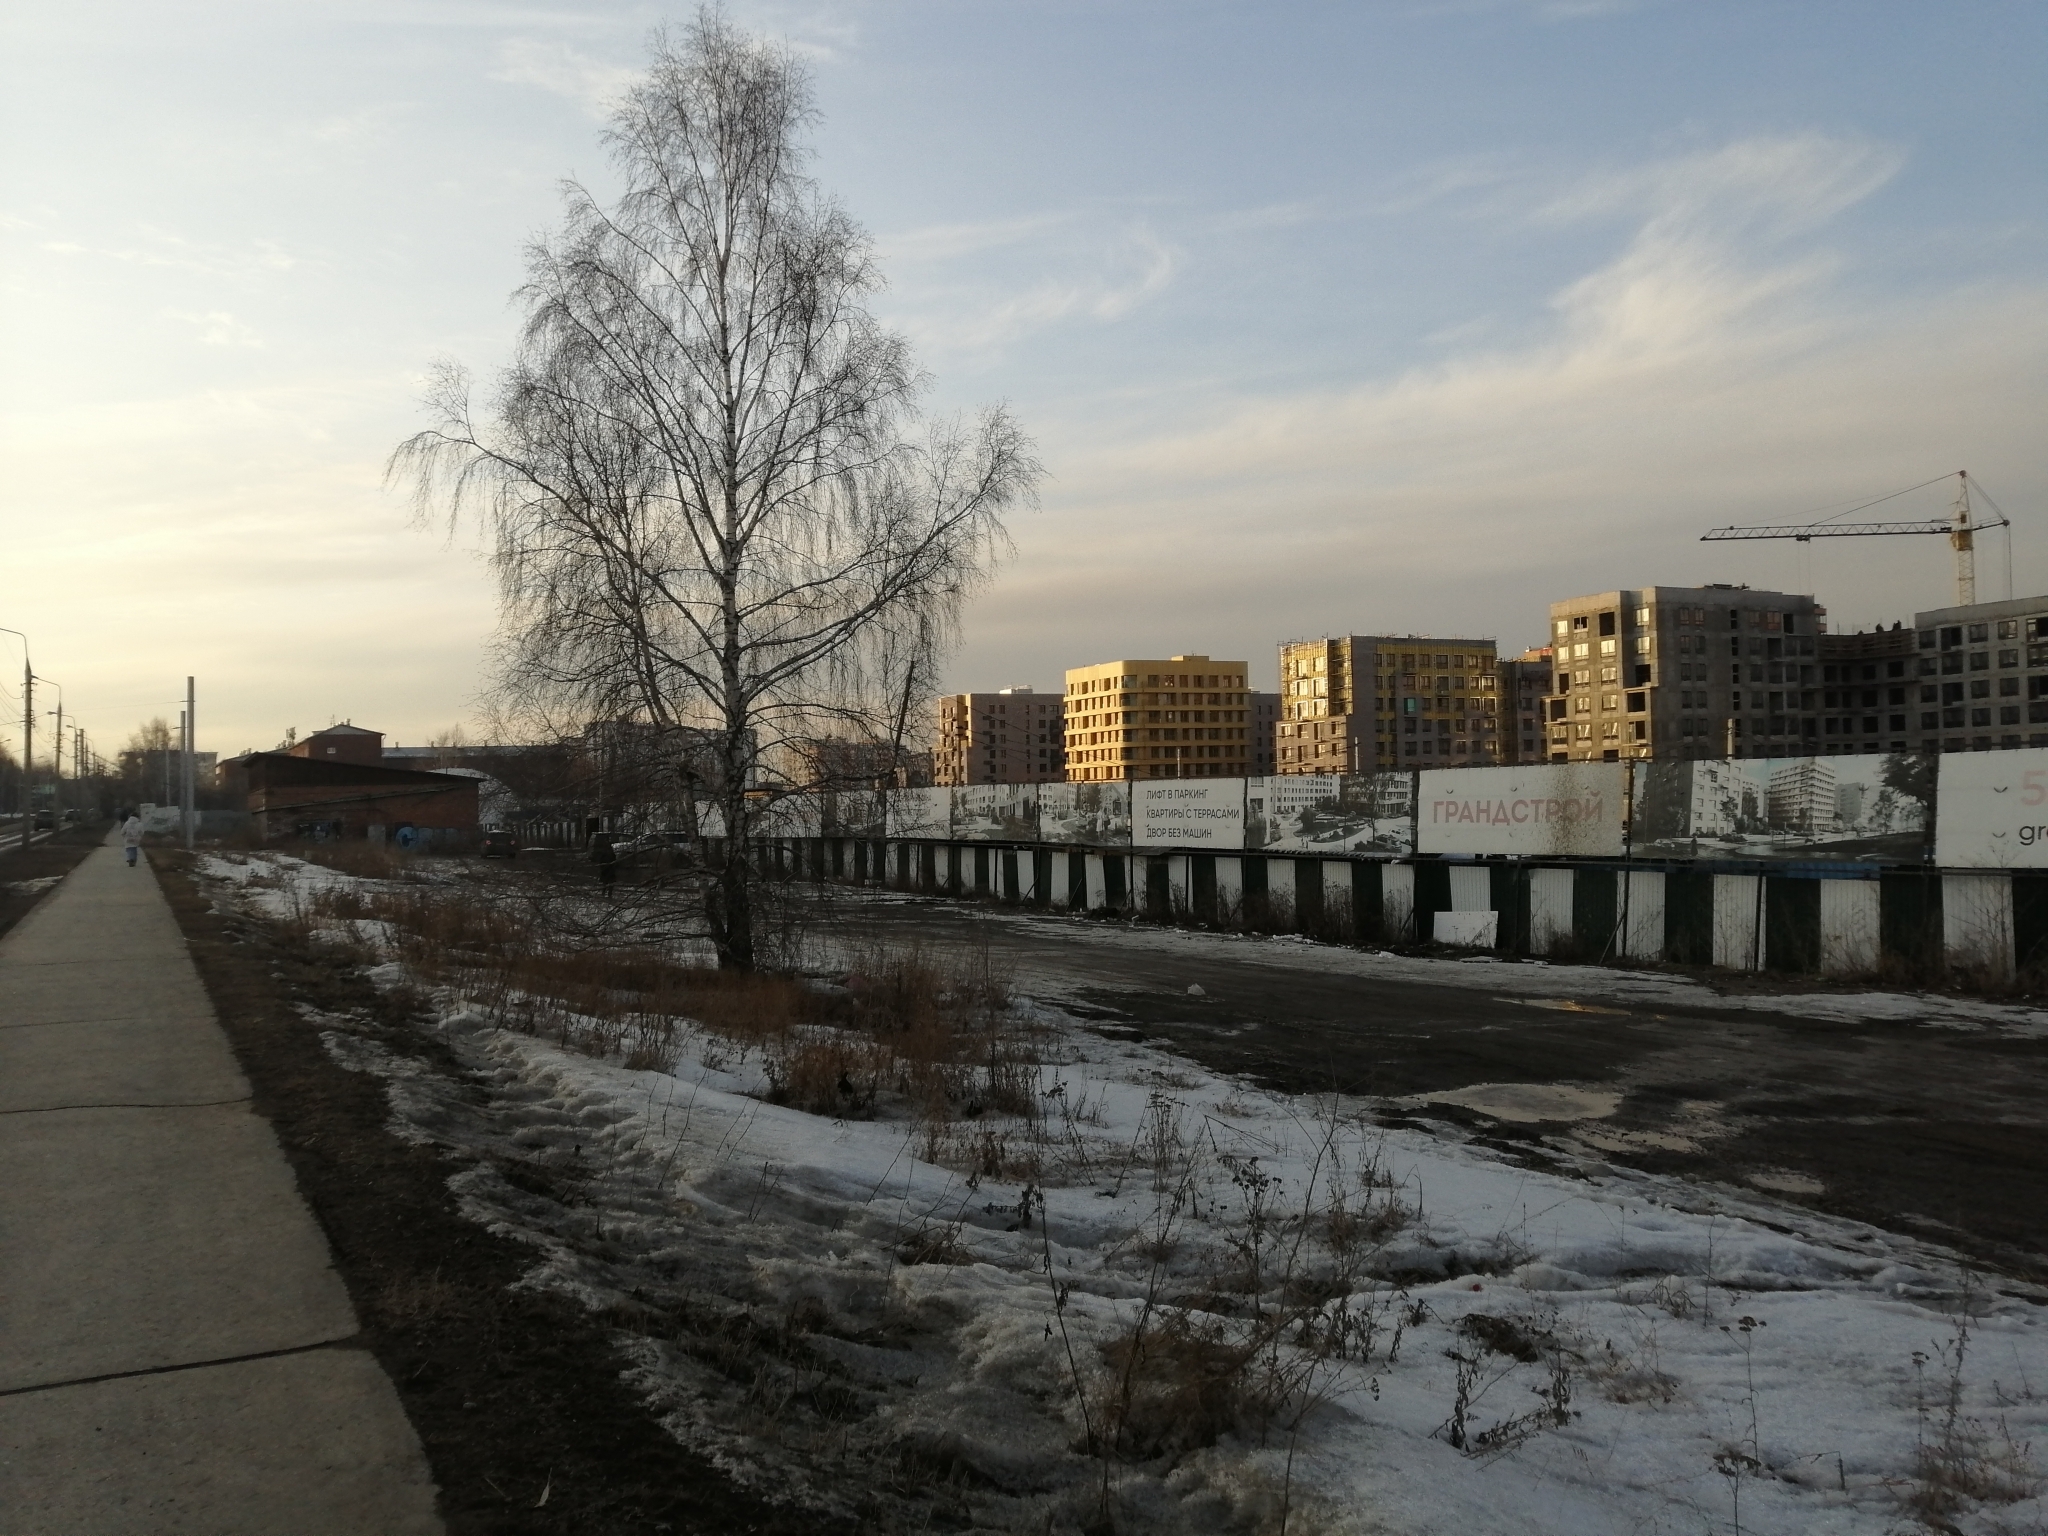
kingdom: Plantae
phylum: Tracheophyta
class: Magnoliopsida
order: Fagales
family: Betulaceae
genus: Betula
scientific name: Betula pendula
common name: Silver birch
